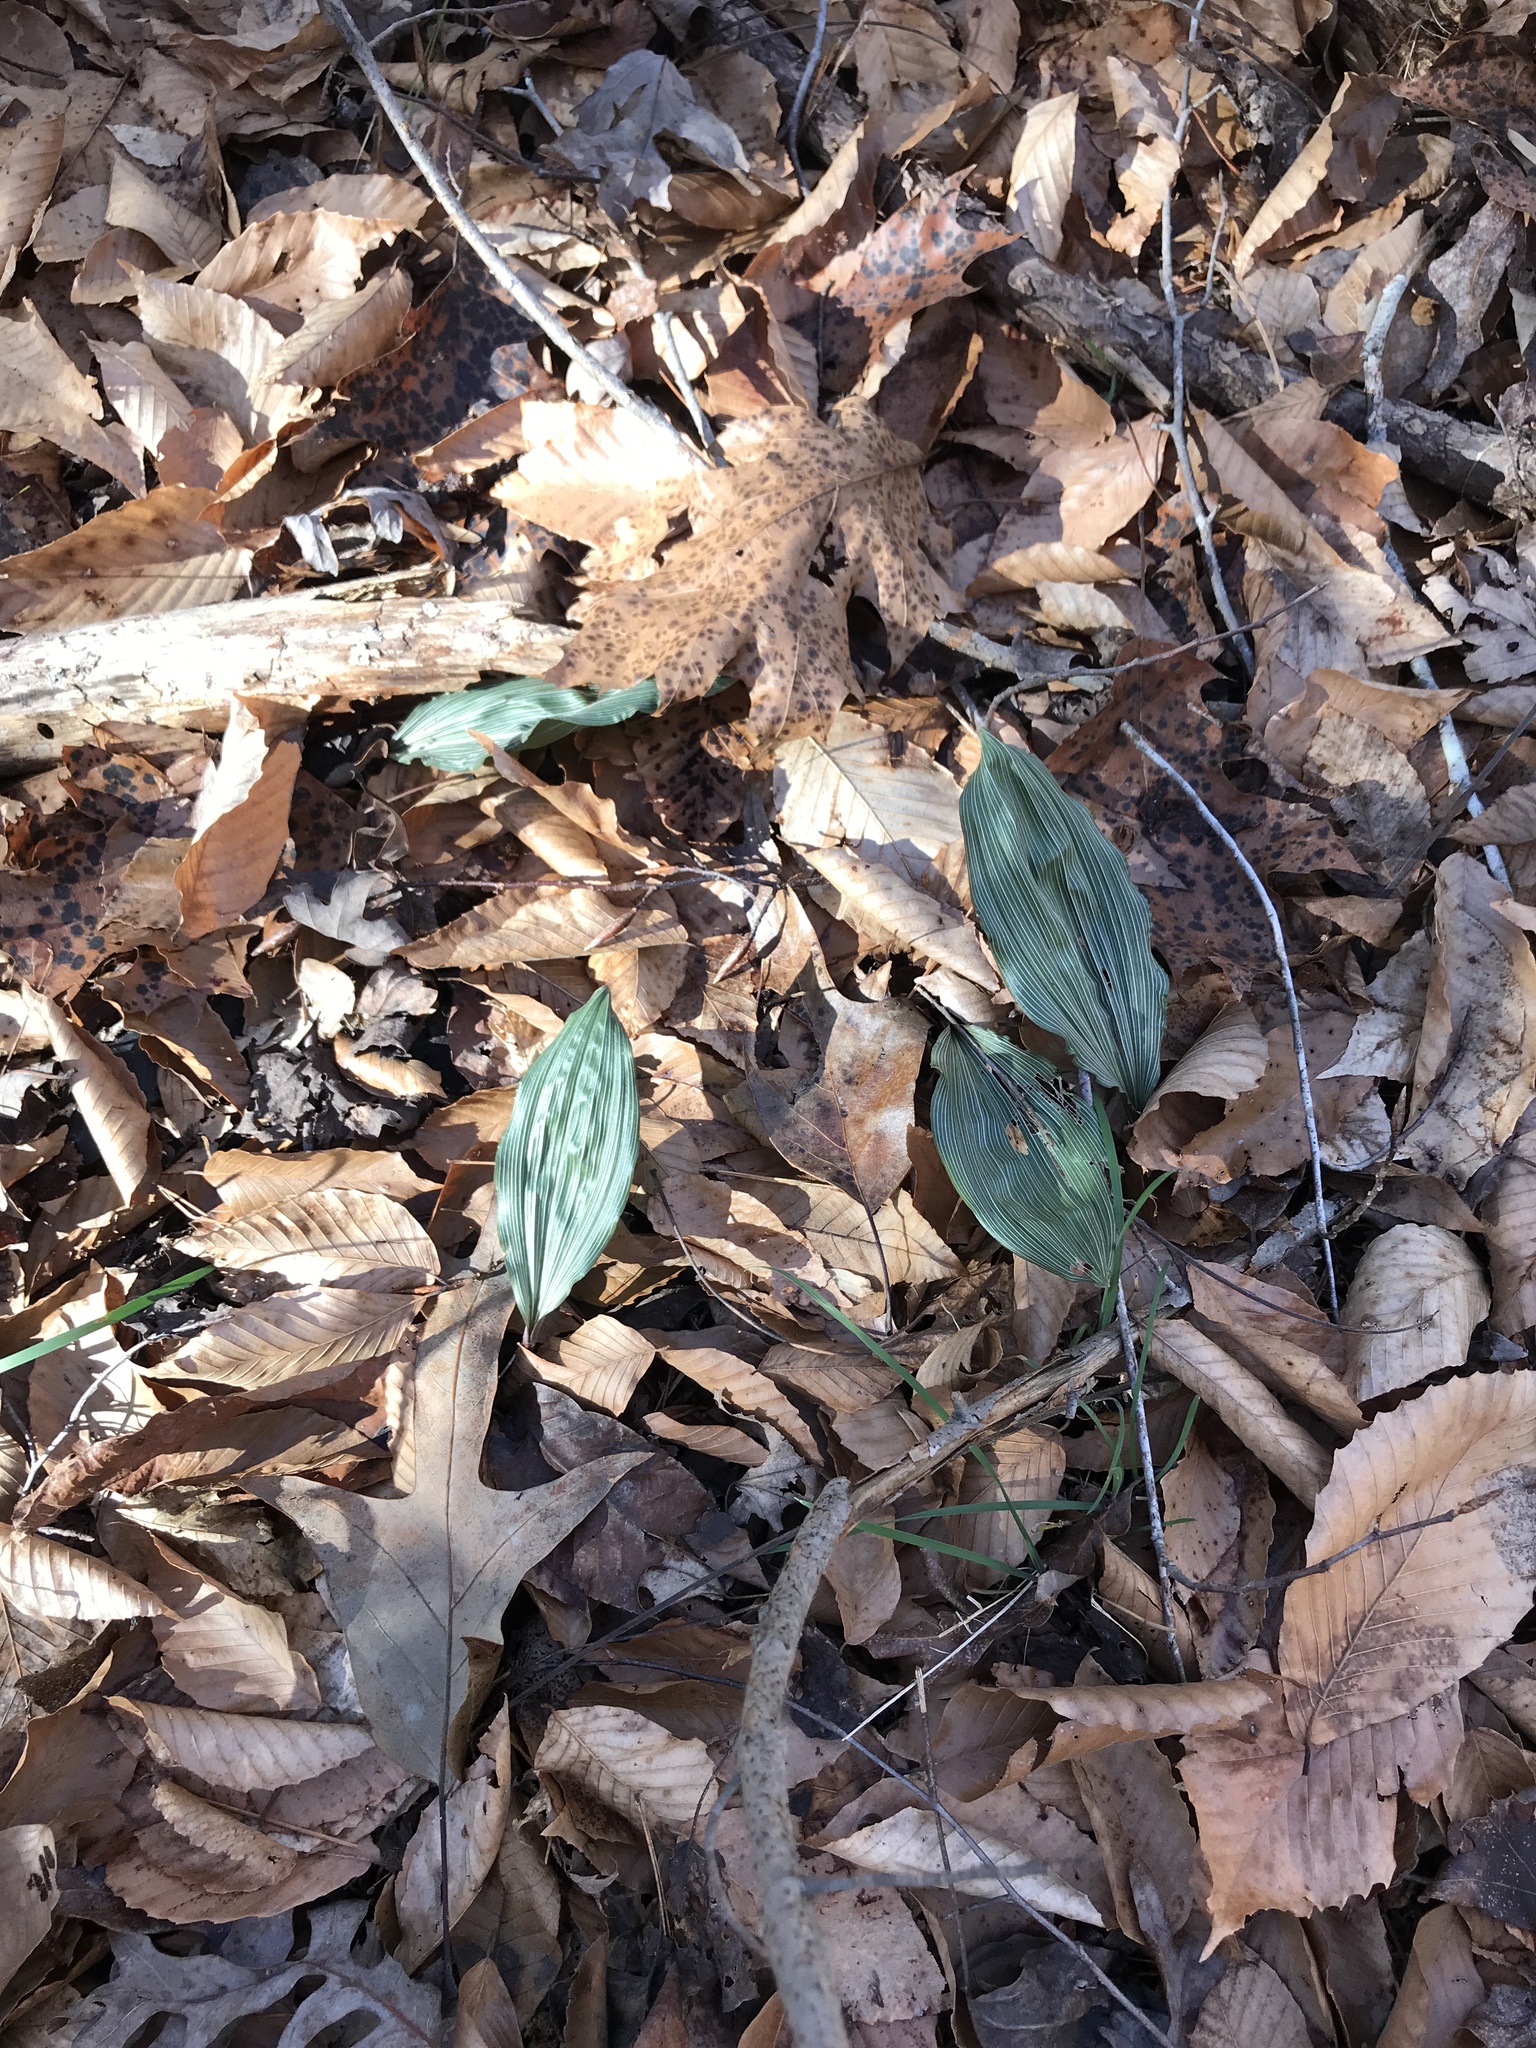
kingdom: Plantae
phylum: Tracheophyta
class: Liliopsida
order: Asparagales
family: Orchidaceae
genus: Aplectrum
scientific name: Aplectrum hyemale
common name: Adam-and-eve
